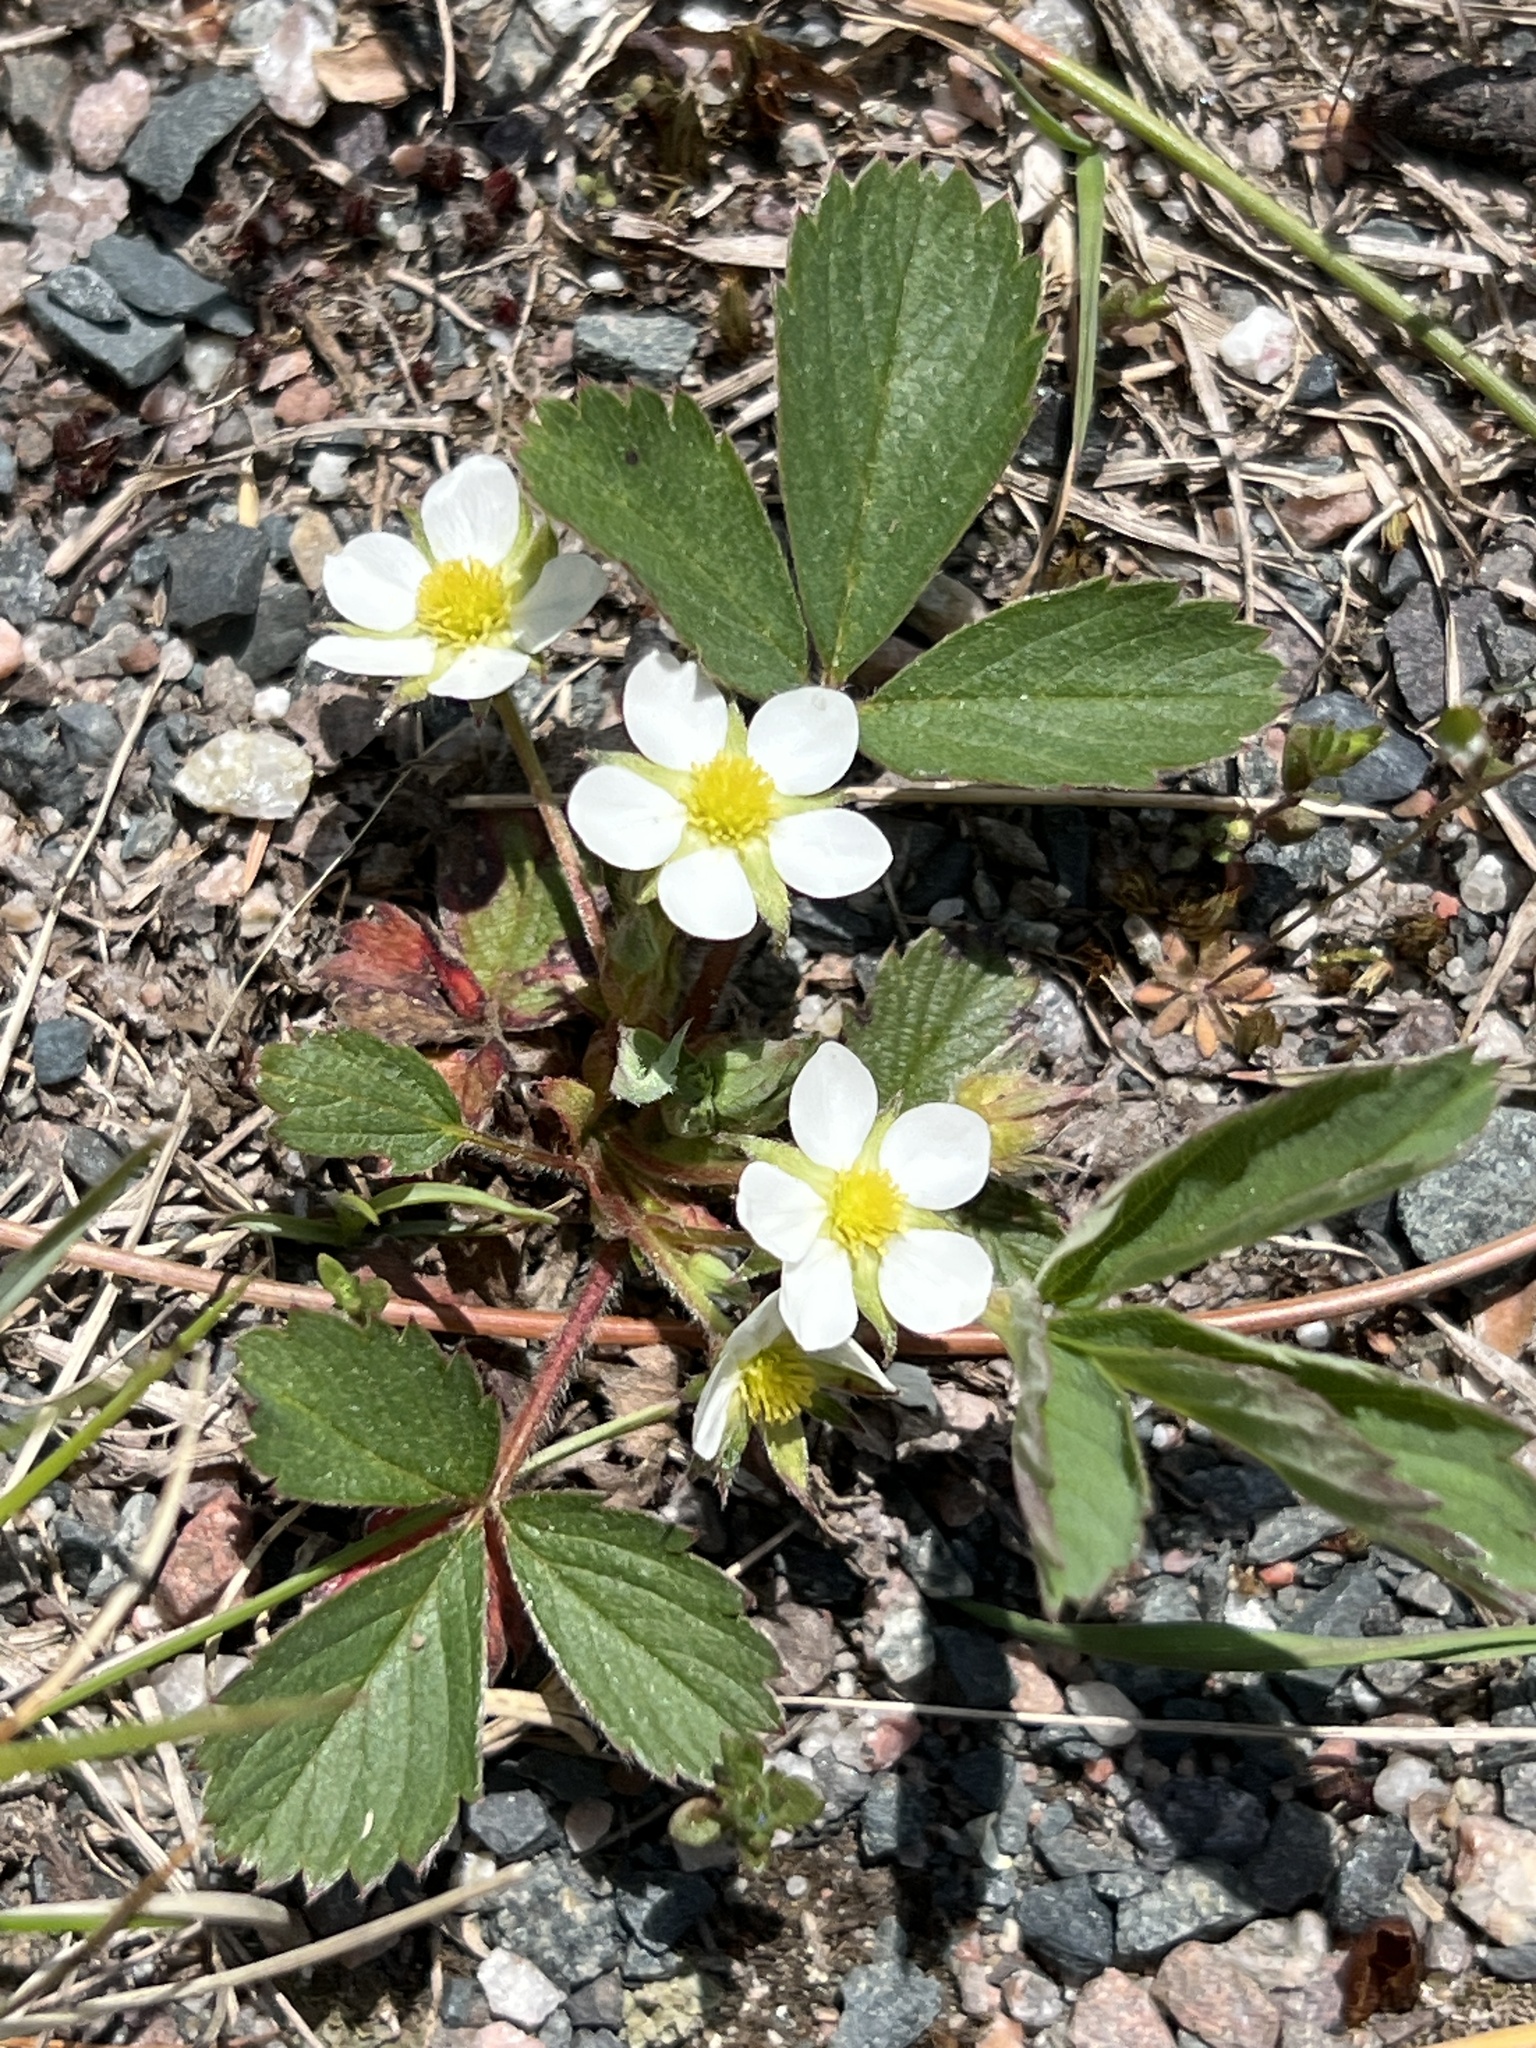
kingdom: Plantae
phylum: Tracheophyta
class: Magnoliopsida
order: Rosales
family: Rosaceae
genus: Fragaria
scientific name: Fragaria virginiana
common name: Thickleaved wild strawberry
